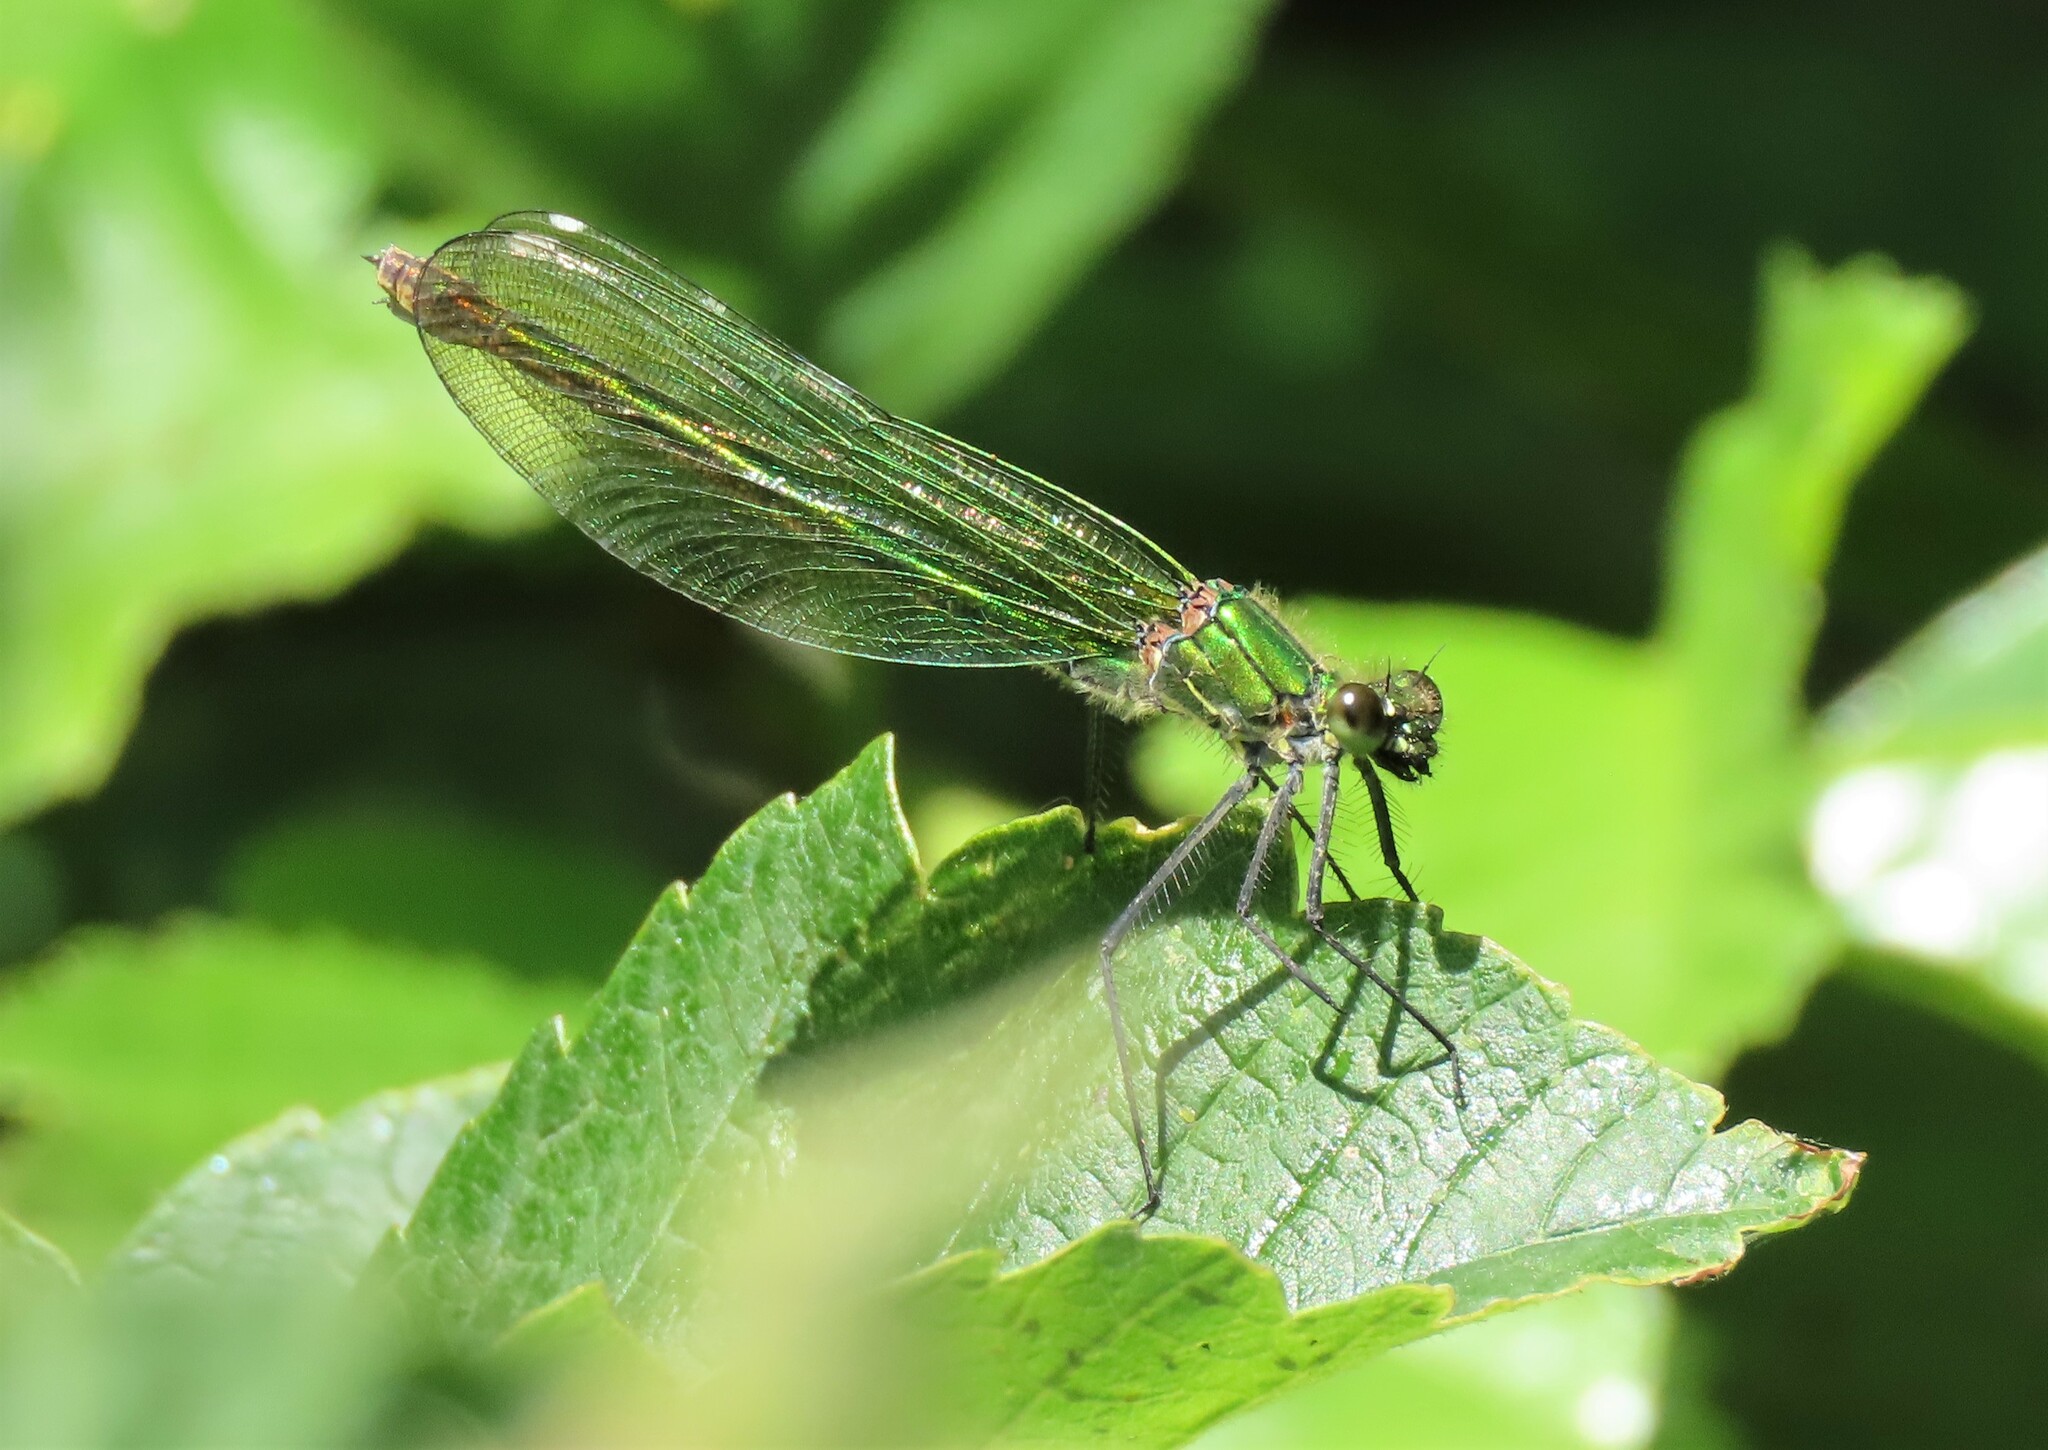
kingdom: Animalia
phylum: Arthropoda
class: Insecta
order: Odonata
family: Calopterygidae
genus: Calopteryx
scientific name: Calopteryx splendens
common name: Banded demoiselle
